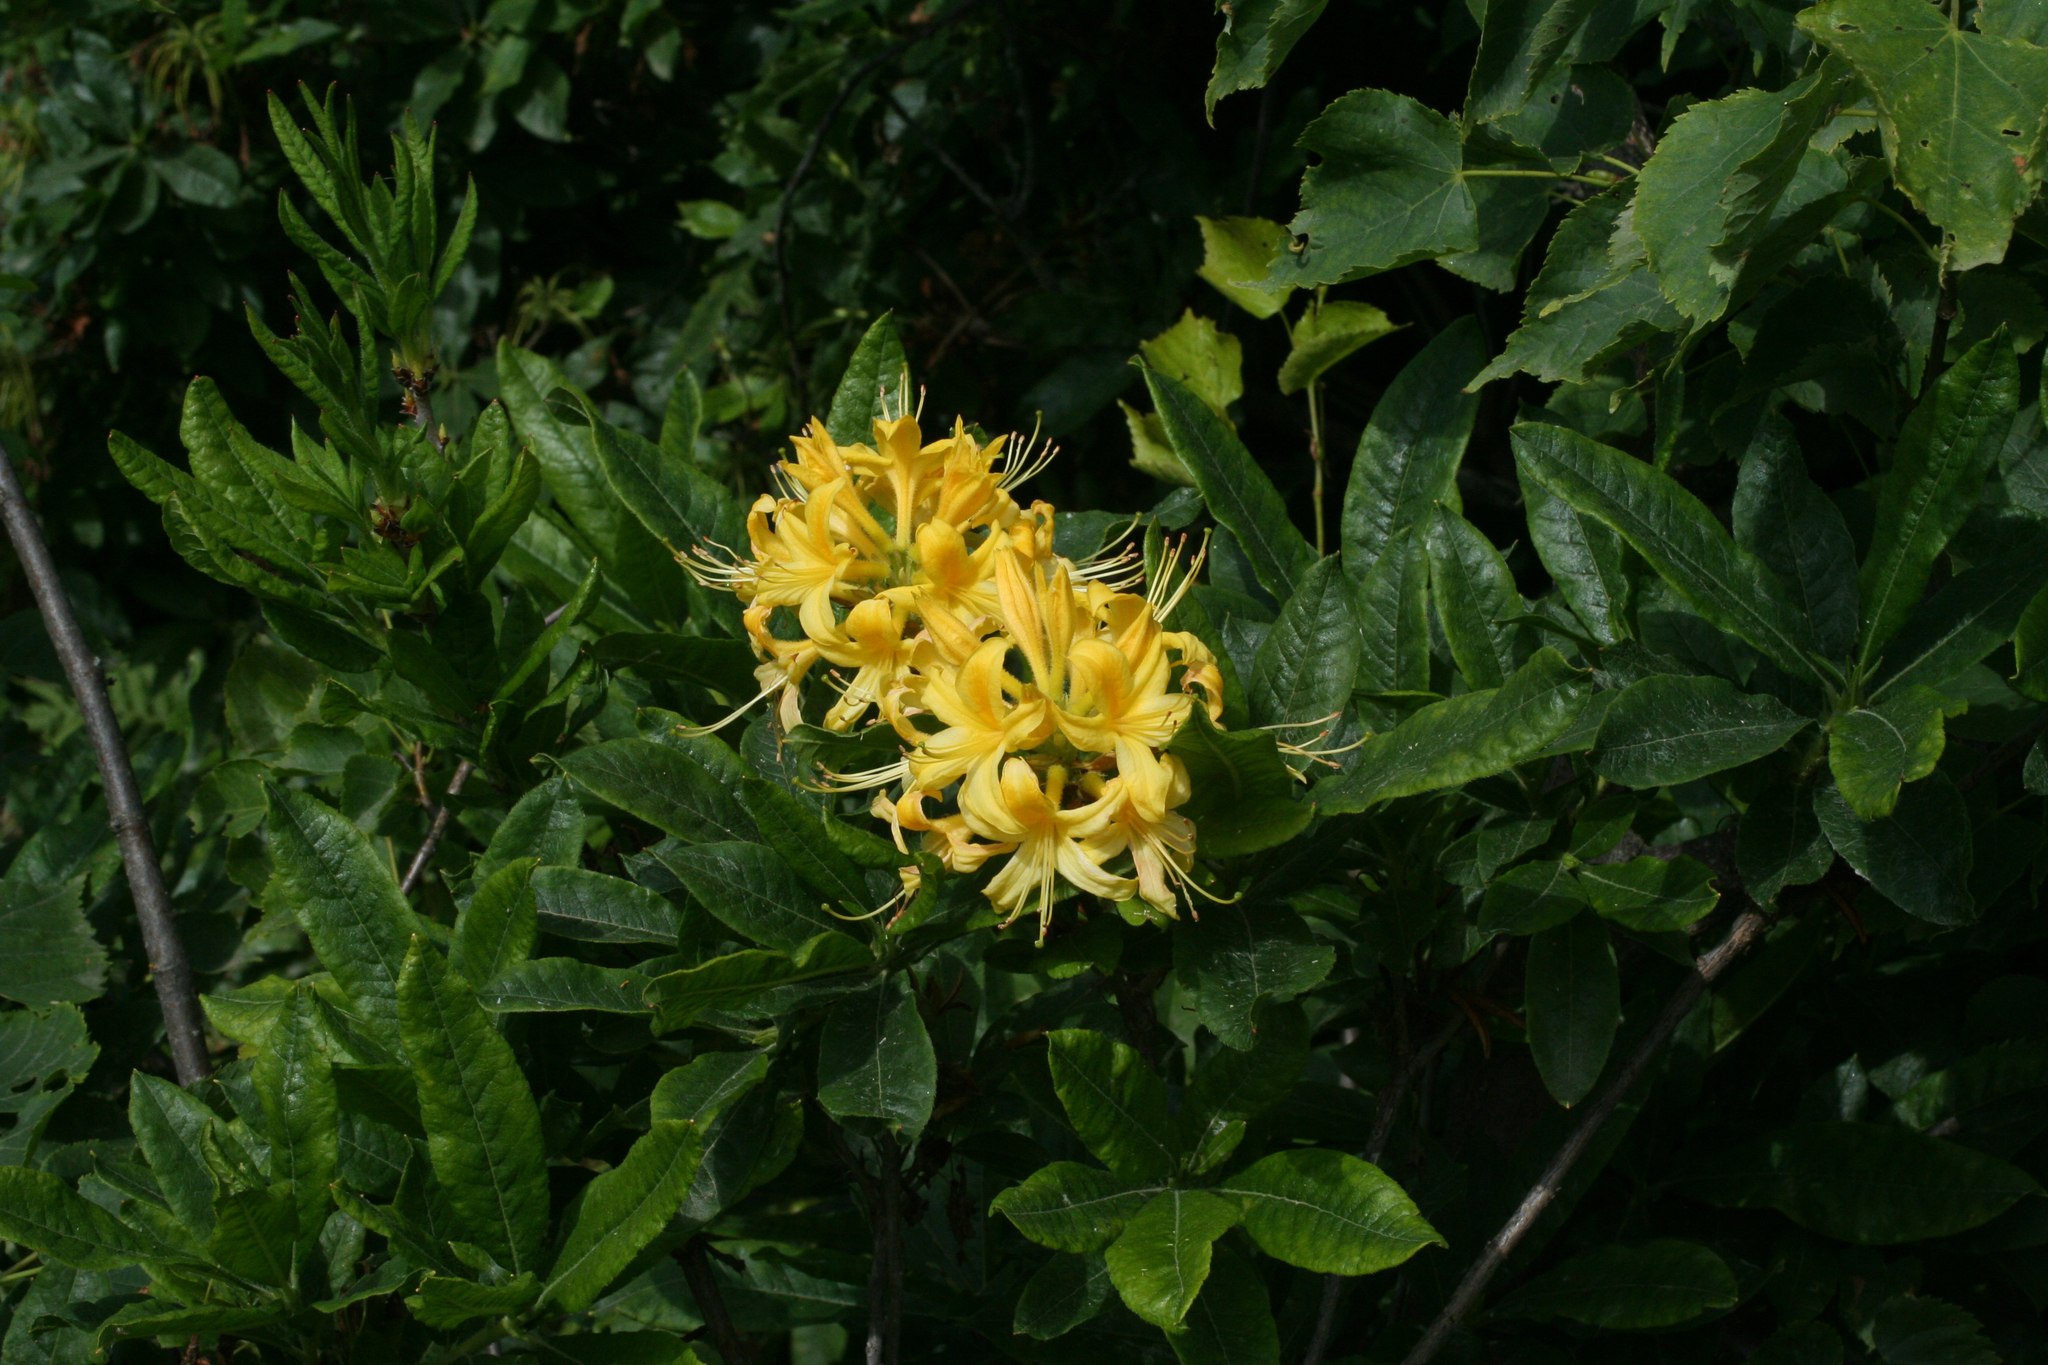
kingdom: Plantae
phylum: Tracheophyta
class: Magnoliopsida
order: Ericales
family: Ericaceae
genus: Rhododendron
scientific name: Rhododendron luteum
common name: Yellow azalea
